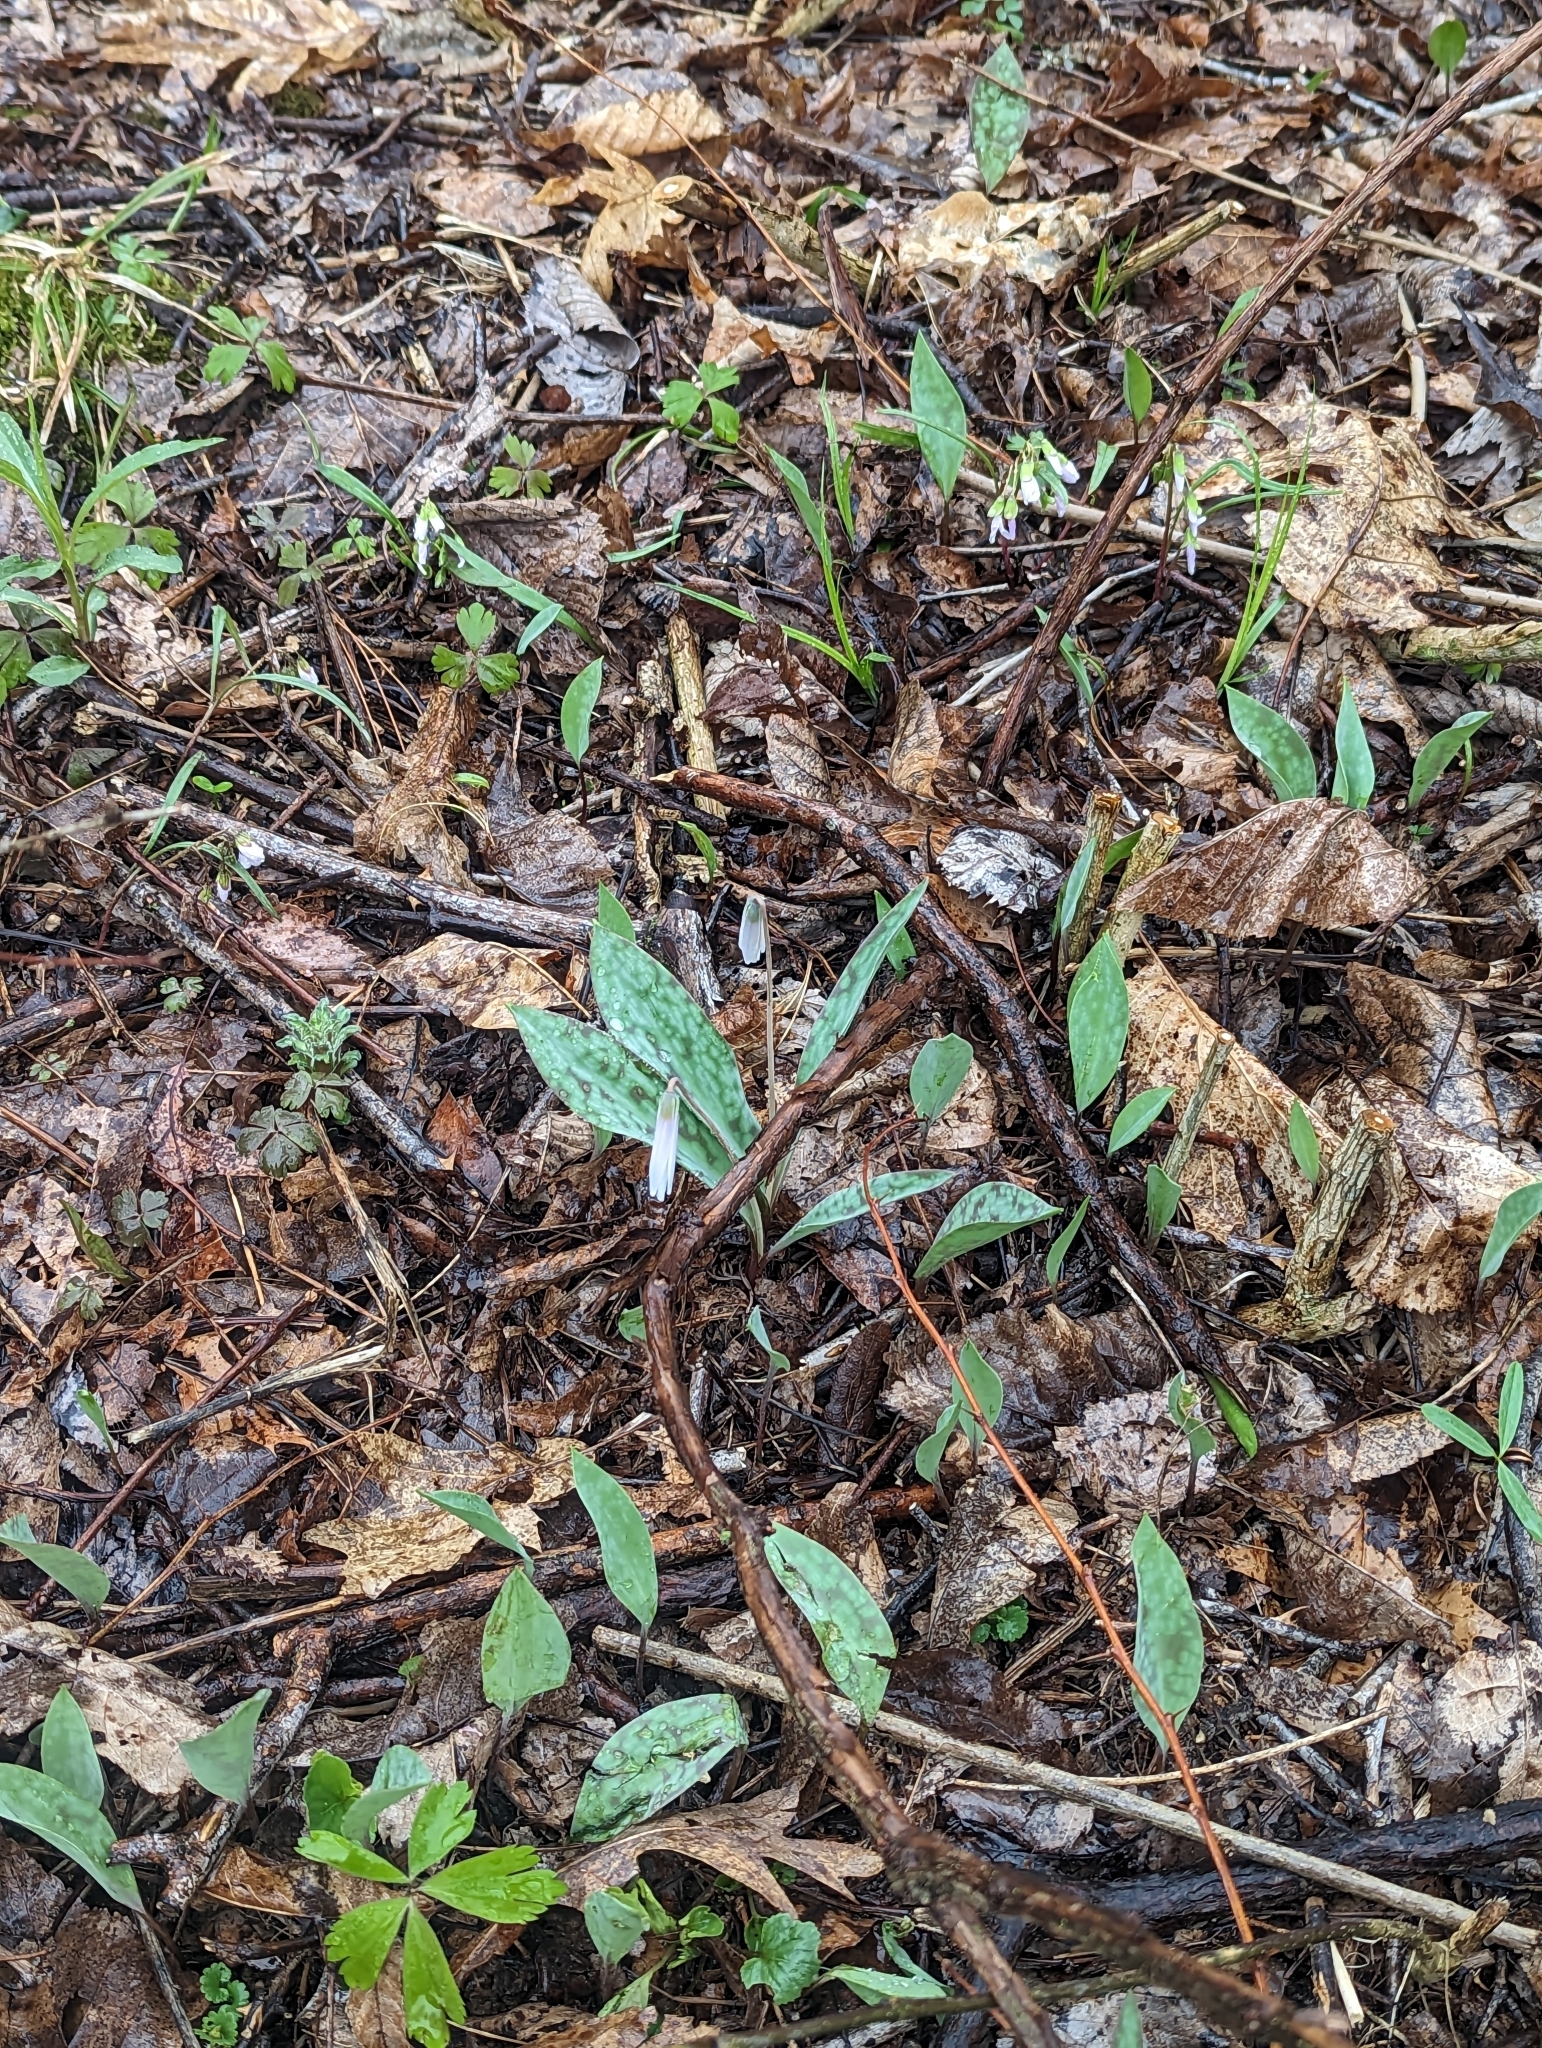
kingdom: Plantae
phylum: Tracheophyta
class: Liliopsida
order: Liliales
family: Liliaceae
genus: Erythronium
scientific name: Erythronium albidum
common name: White trout-lily
